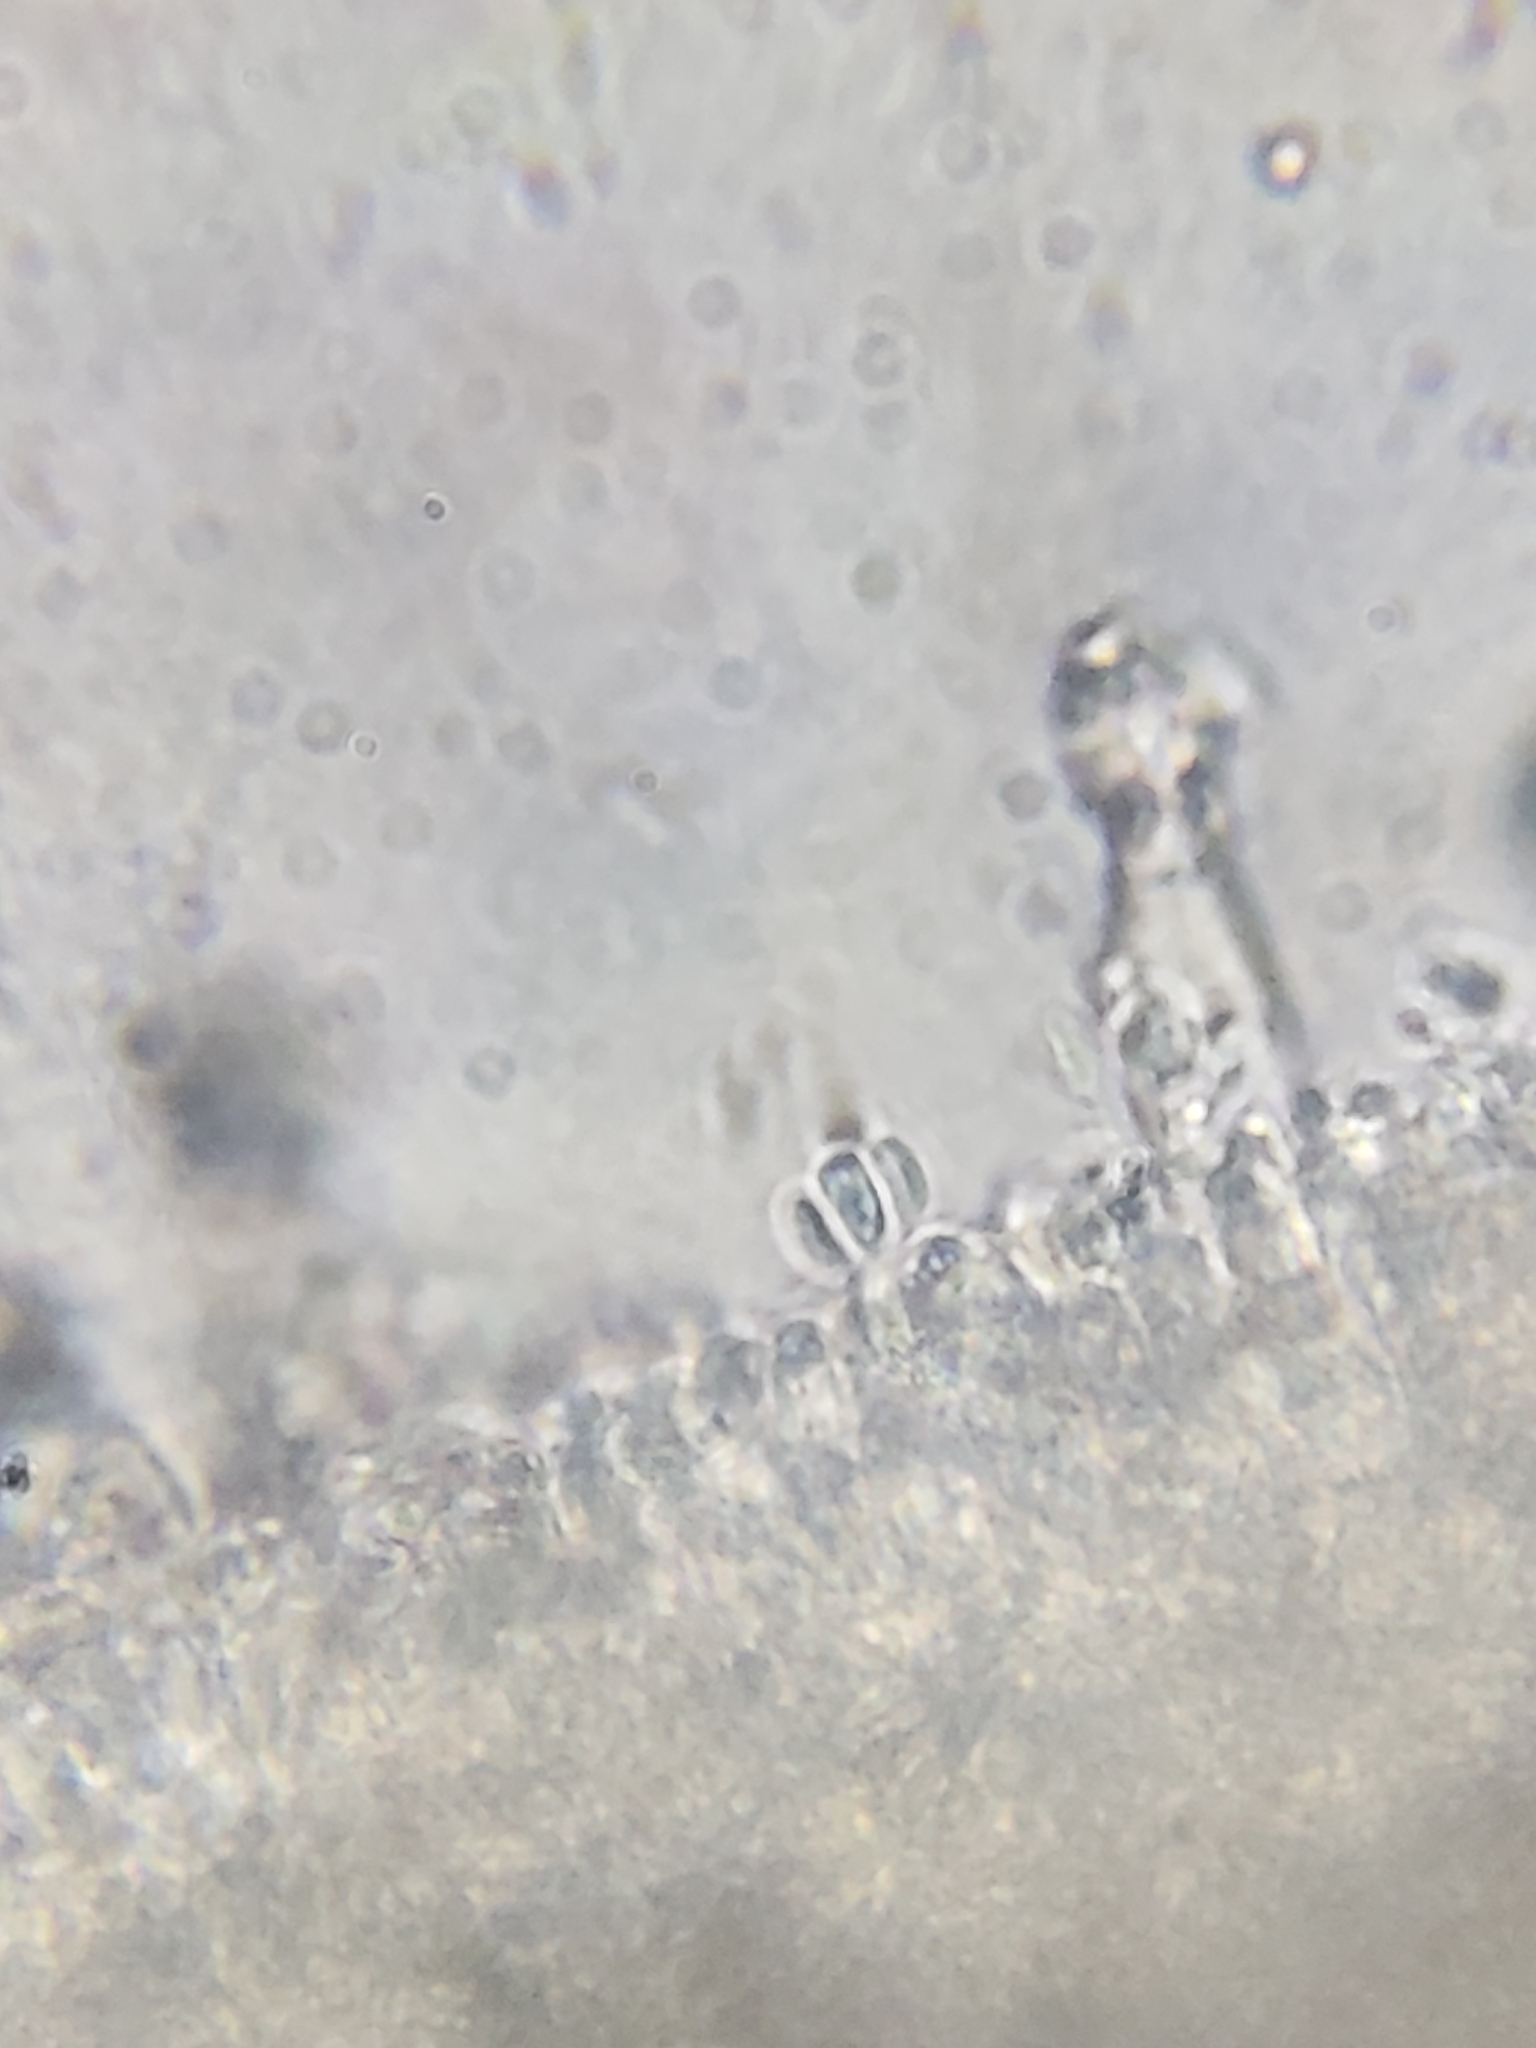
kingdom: Fungi
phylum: Basidiomycota
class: Agaricomycetes
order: Agaricales
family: Physalacriaceae
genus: Physalacria
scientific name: Physalacria inflata
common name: Bladder stalks
